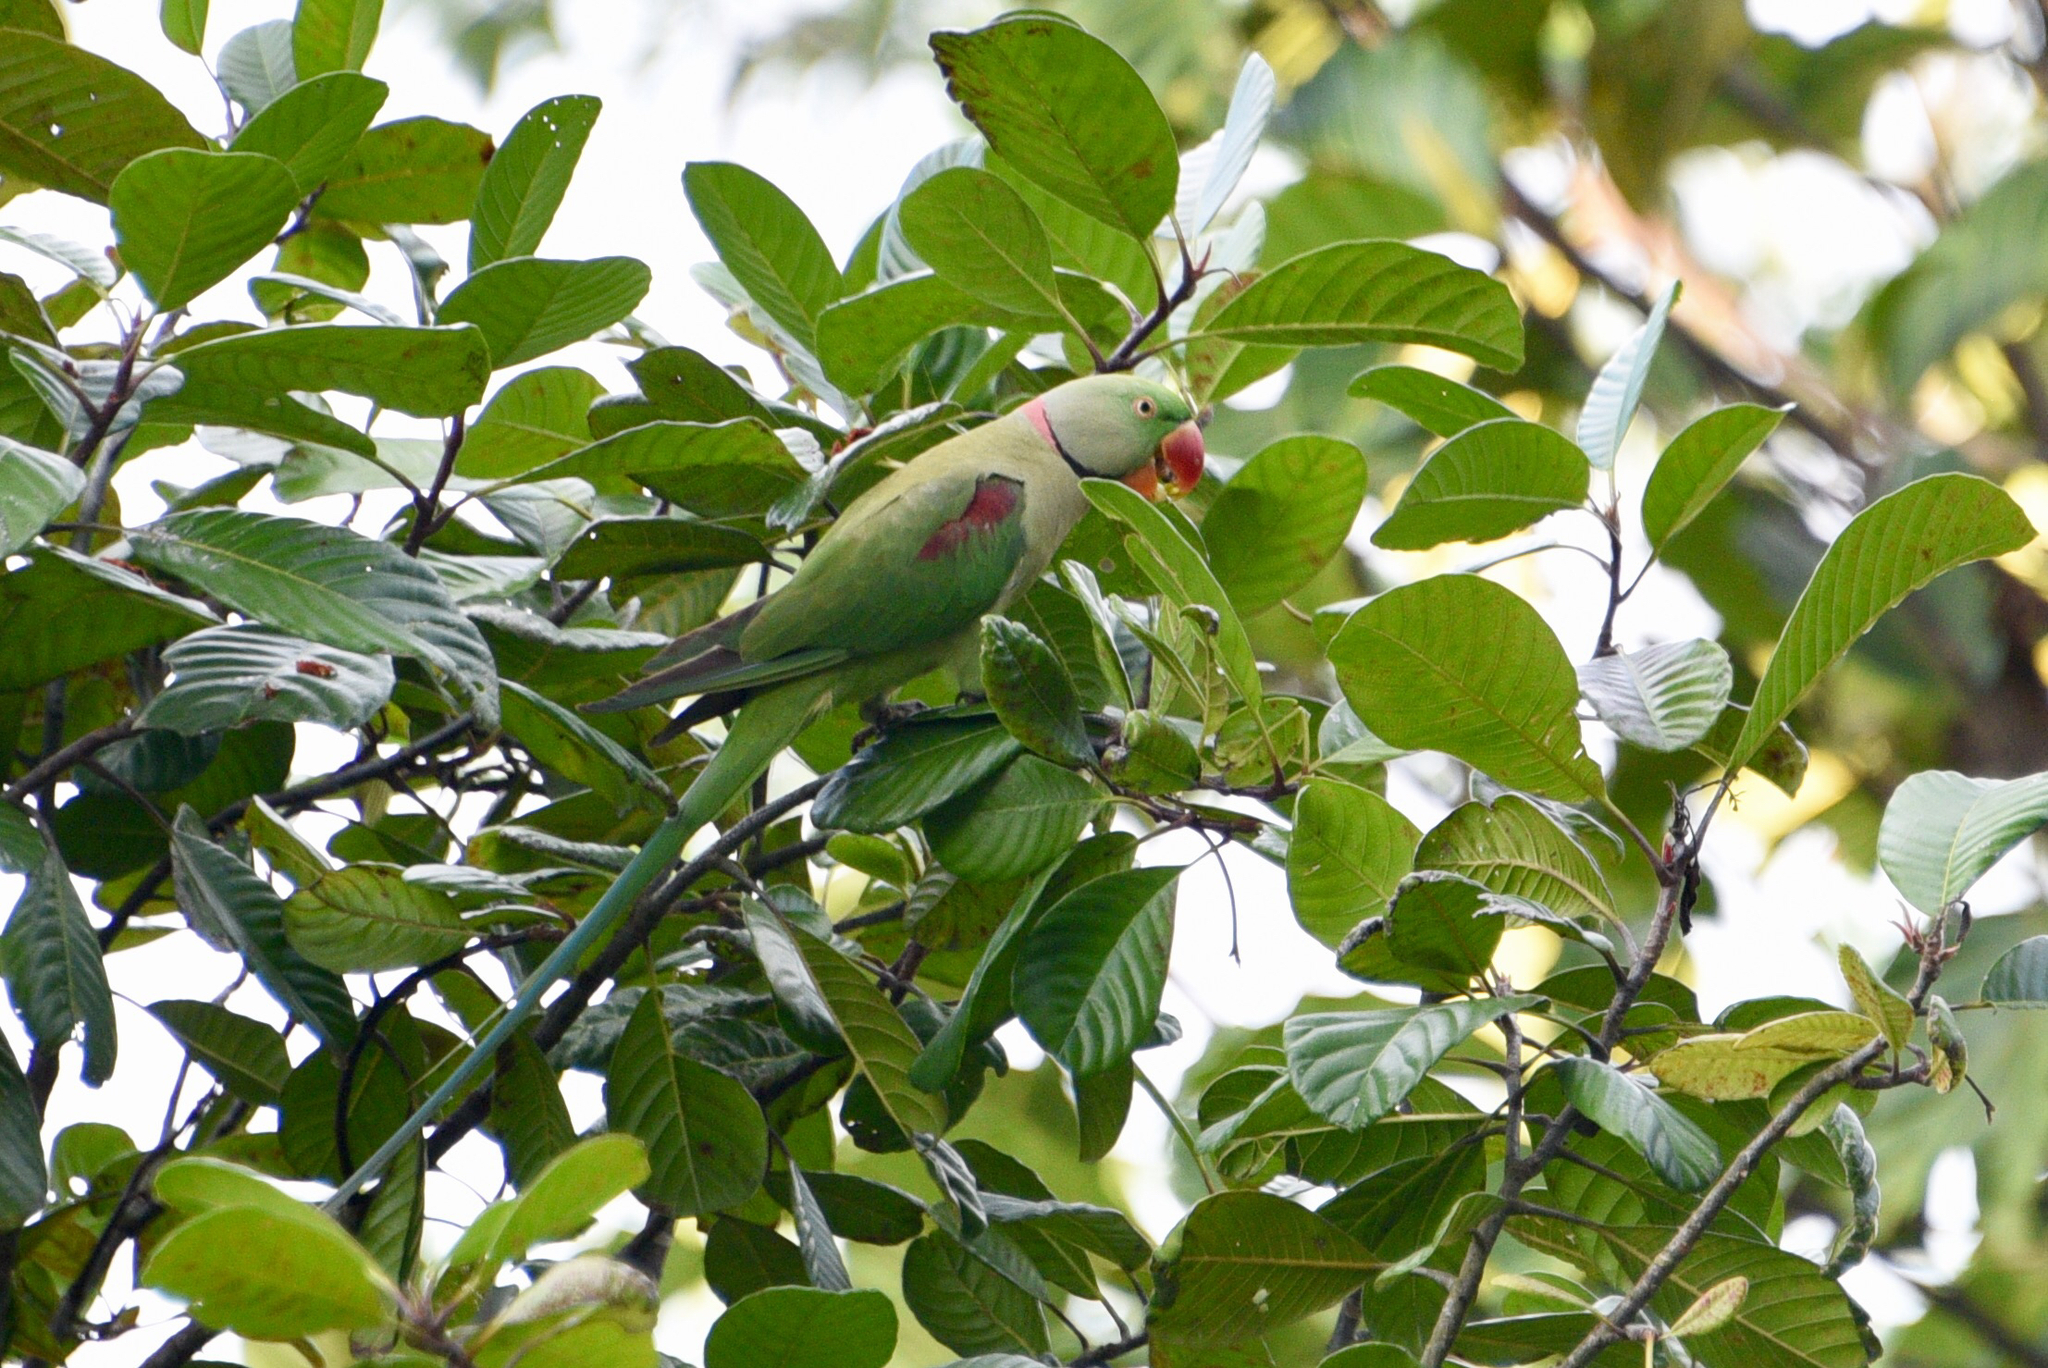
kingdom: Animalia
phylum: Chordata
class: Aves
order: Psittaciformes
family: Psittacidae
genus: Psittacula
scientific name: Psittacula eupatria
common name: Alexandrine parakeet
